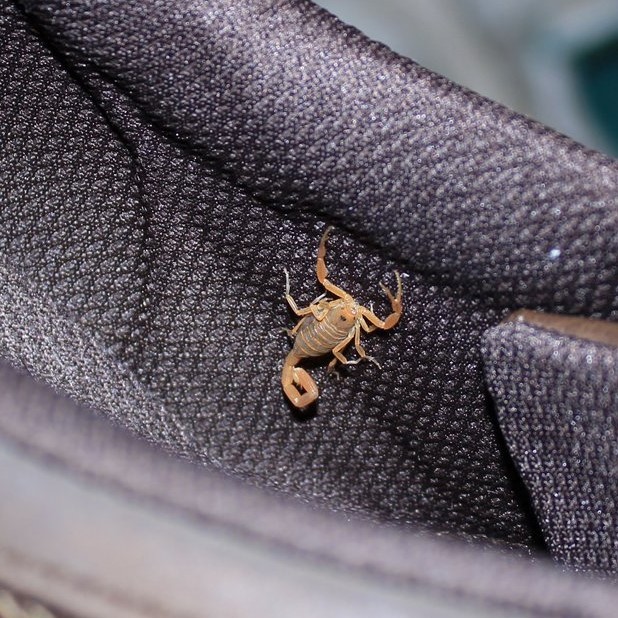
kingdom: Animalia
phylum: Arthropoda
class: Arachnida
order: Scorpiones
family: Buthidae
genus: Centruroides
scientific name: Centruroides sculpturatus
